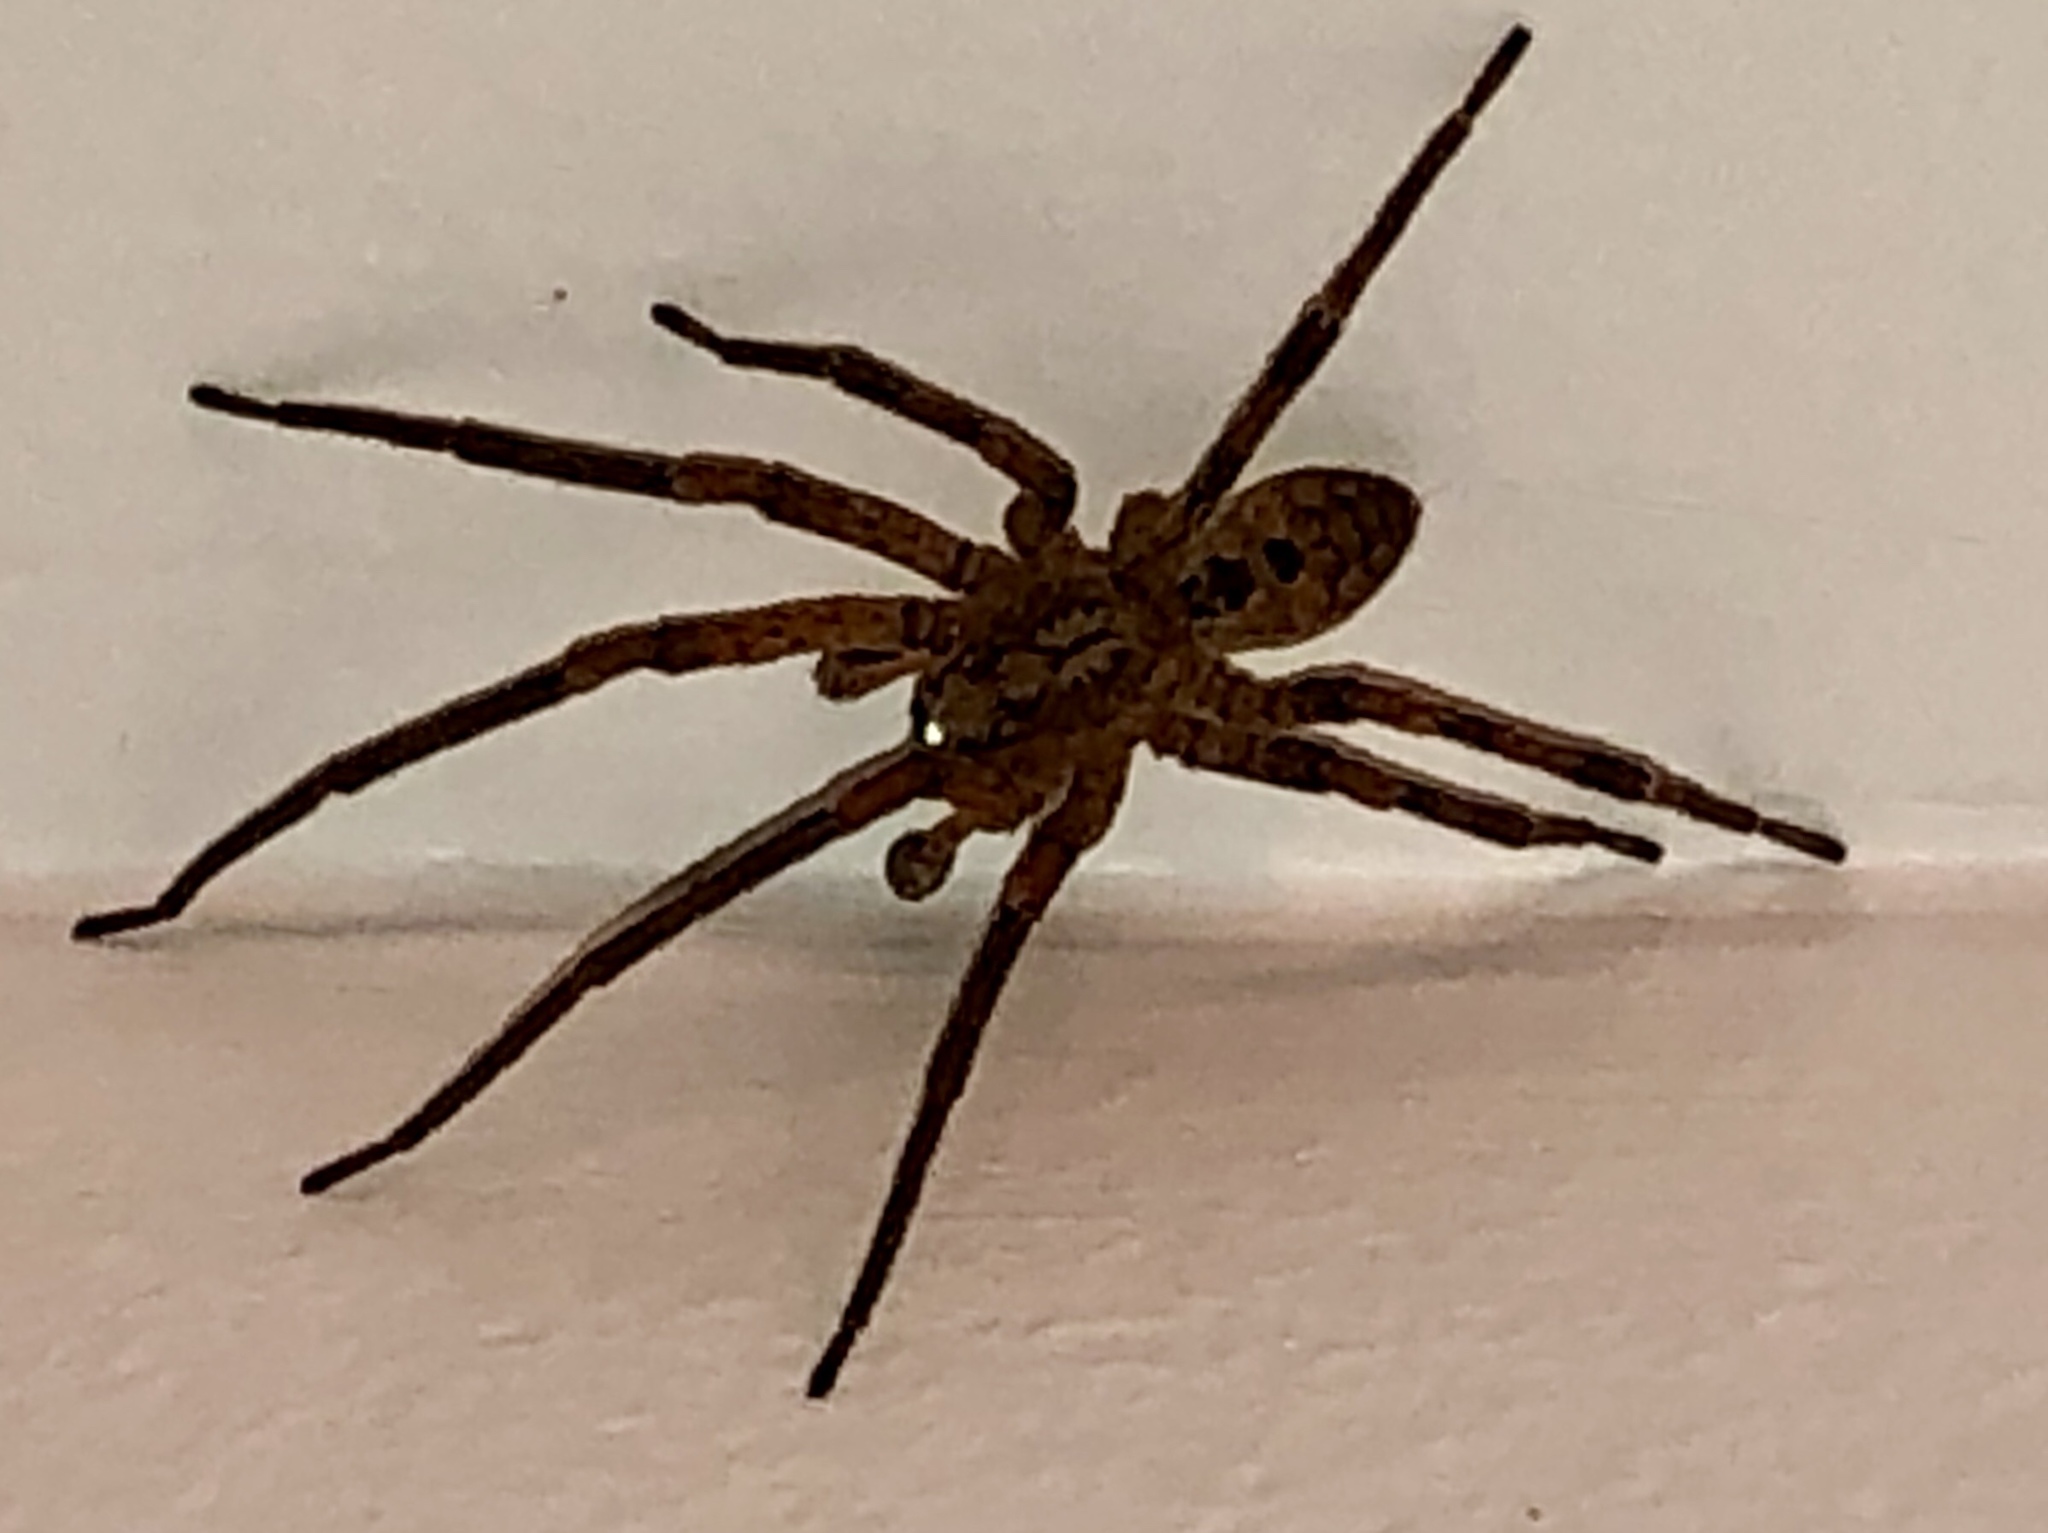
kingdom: Animalia
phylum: Arthropoda
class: Arachnida
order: Araneae
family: Zoropsidae
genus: Zoropsis
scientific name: Zoropsis spinimana
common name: Zoropsid spider
